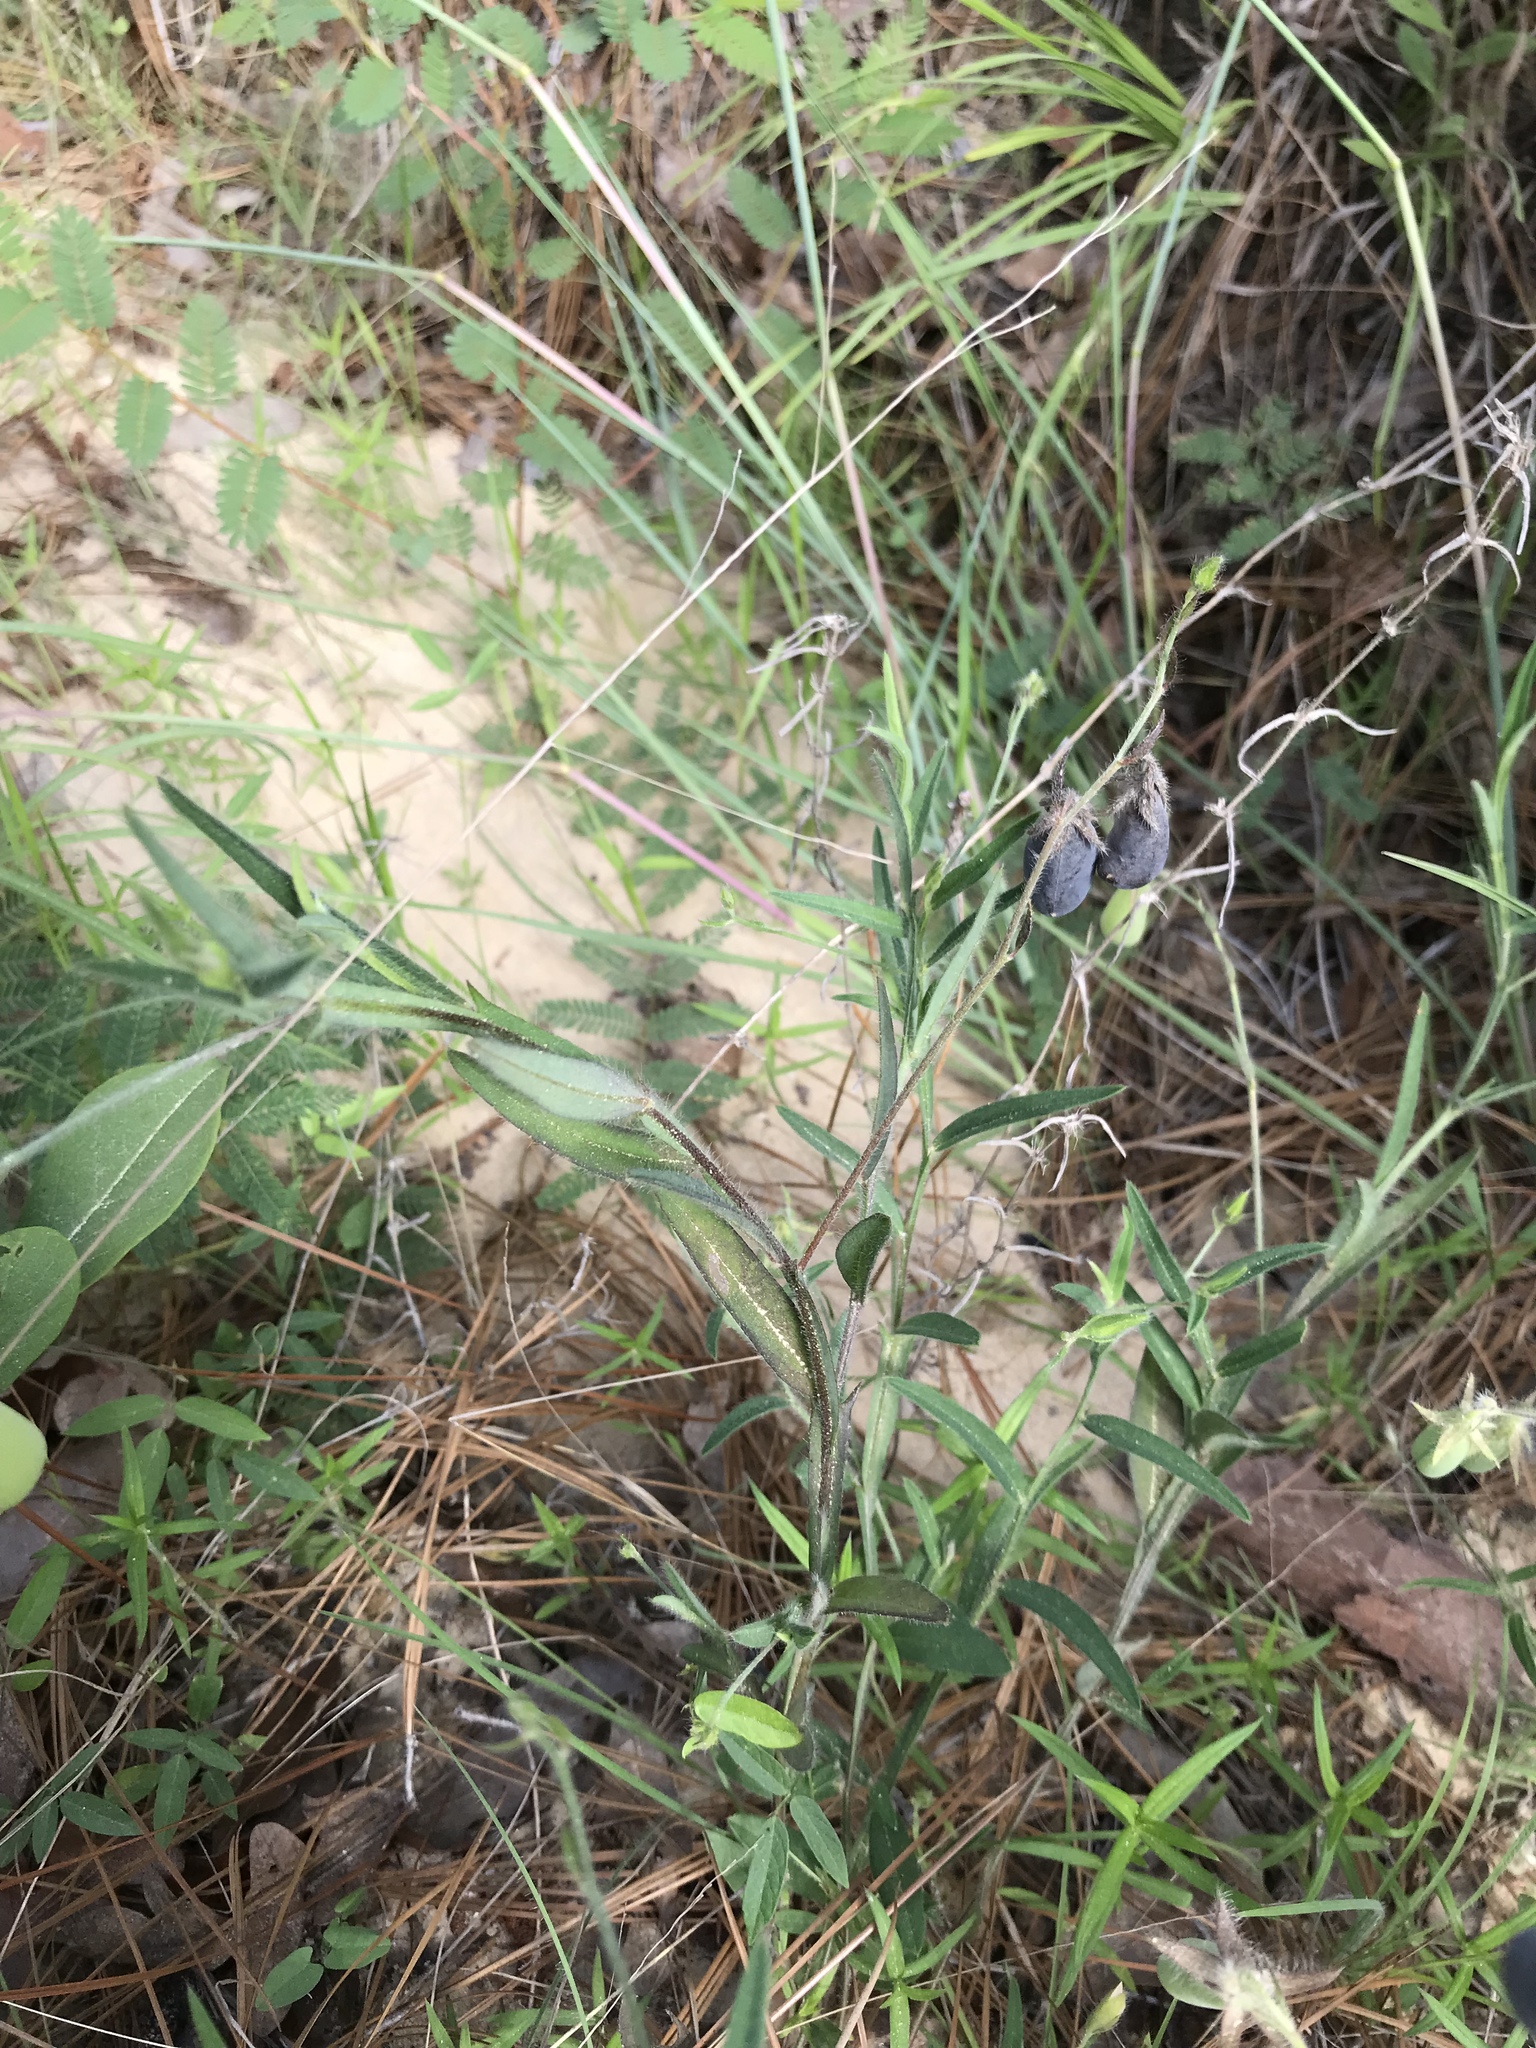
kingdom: Plantae
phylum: Tracheophyta
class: Magnoliopsida
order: Fabales
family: Fabaceae
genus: Crotalaria
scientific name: Crotalaria sagittalis
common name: Arrowhead rattlebox
